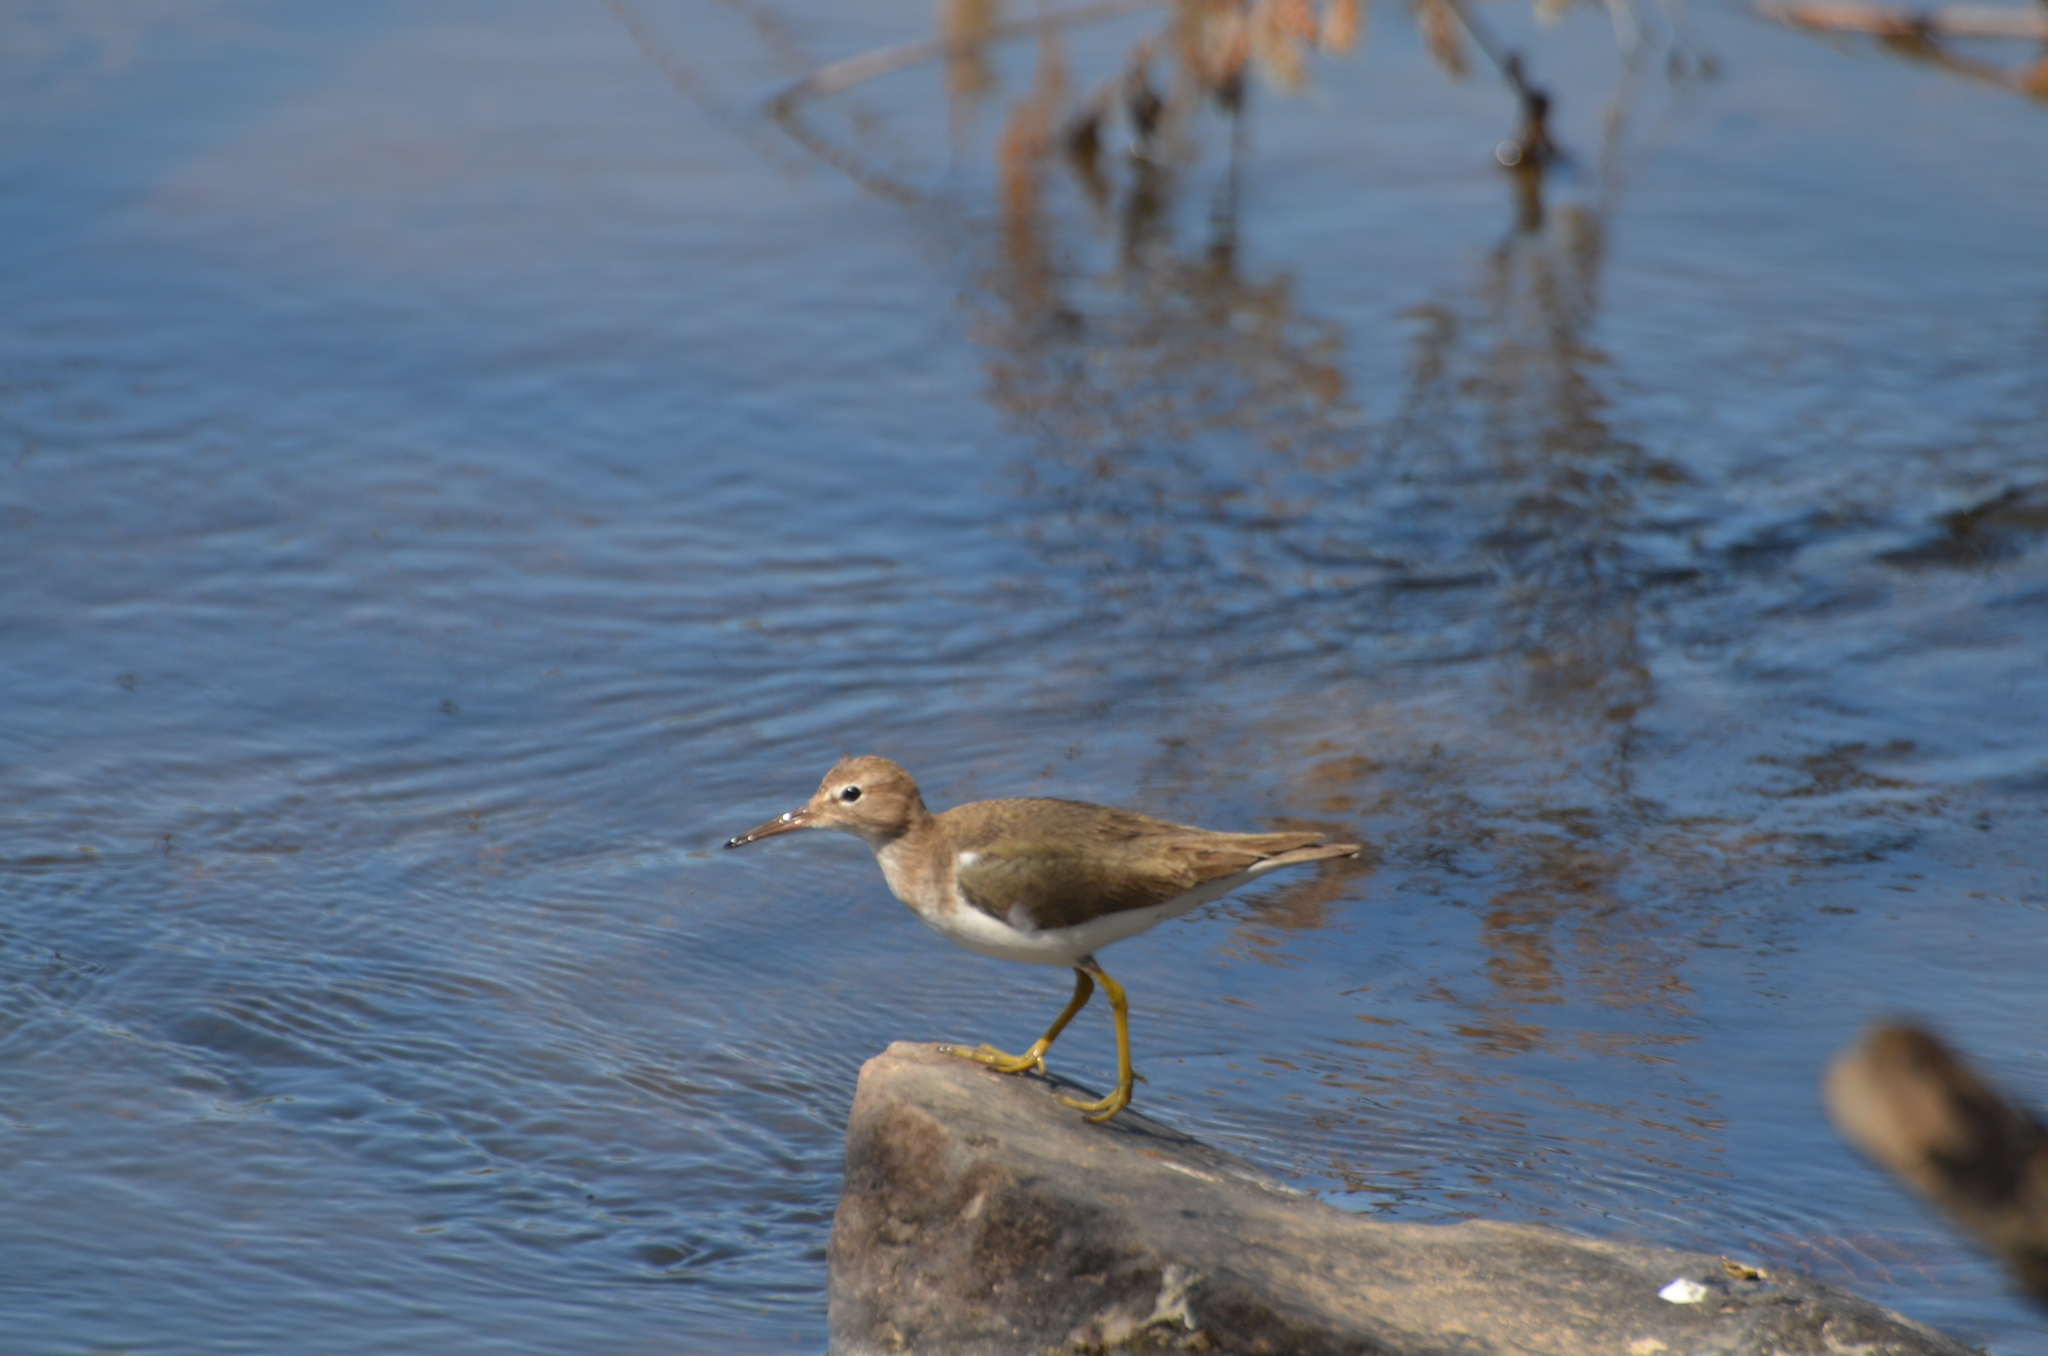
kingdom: Animalia
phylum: Chordata
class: Aves
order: Charadriiformes
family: Scolopacidae
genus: Actitis
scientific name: Actitis macularius
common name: Spotted sandpiper
